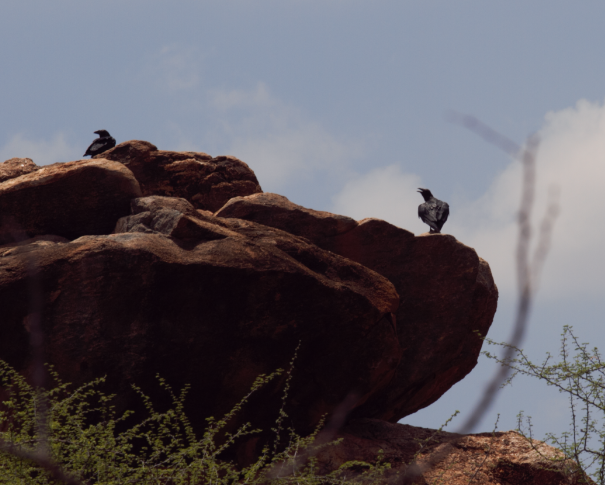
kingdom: Animalia
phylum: Chordata
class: Aves
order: Passeriformes
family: Corvidae
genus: Corvus
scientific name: Corvus rhipidurus
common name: Fan-tailed raven
